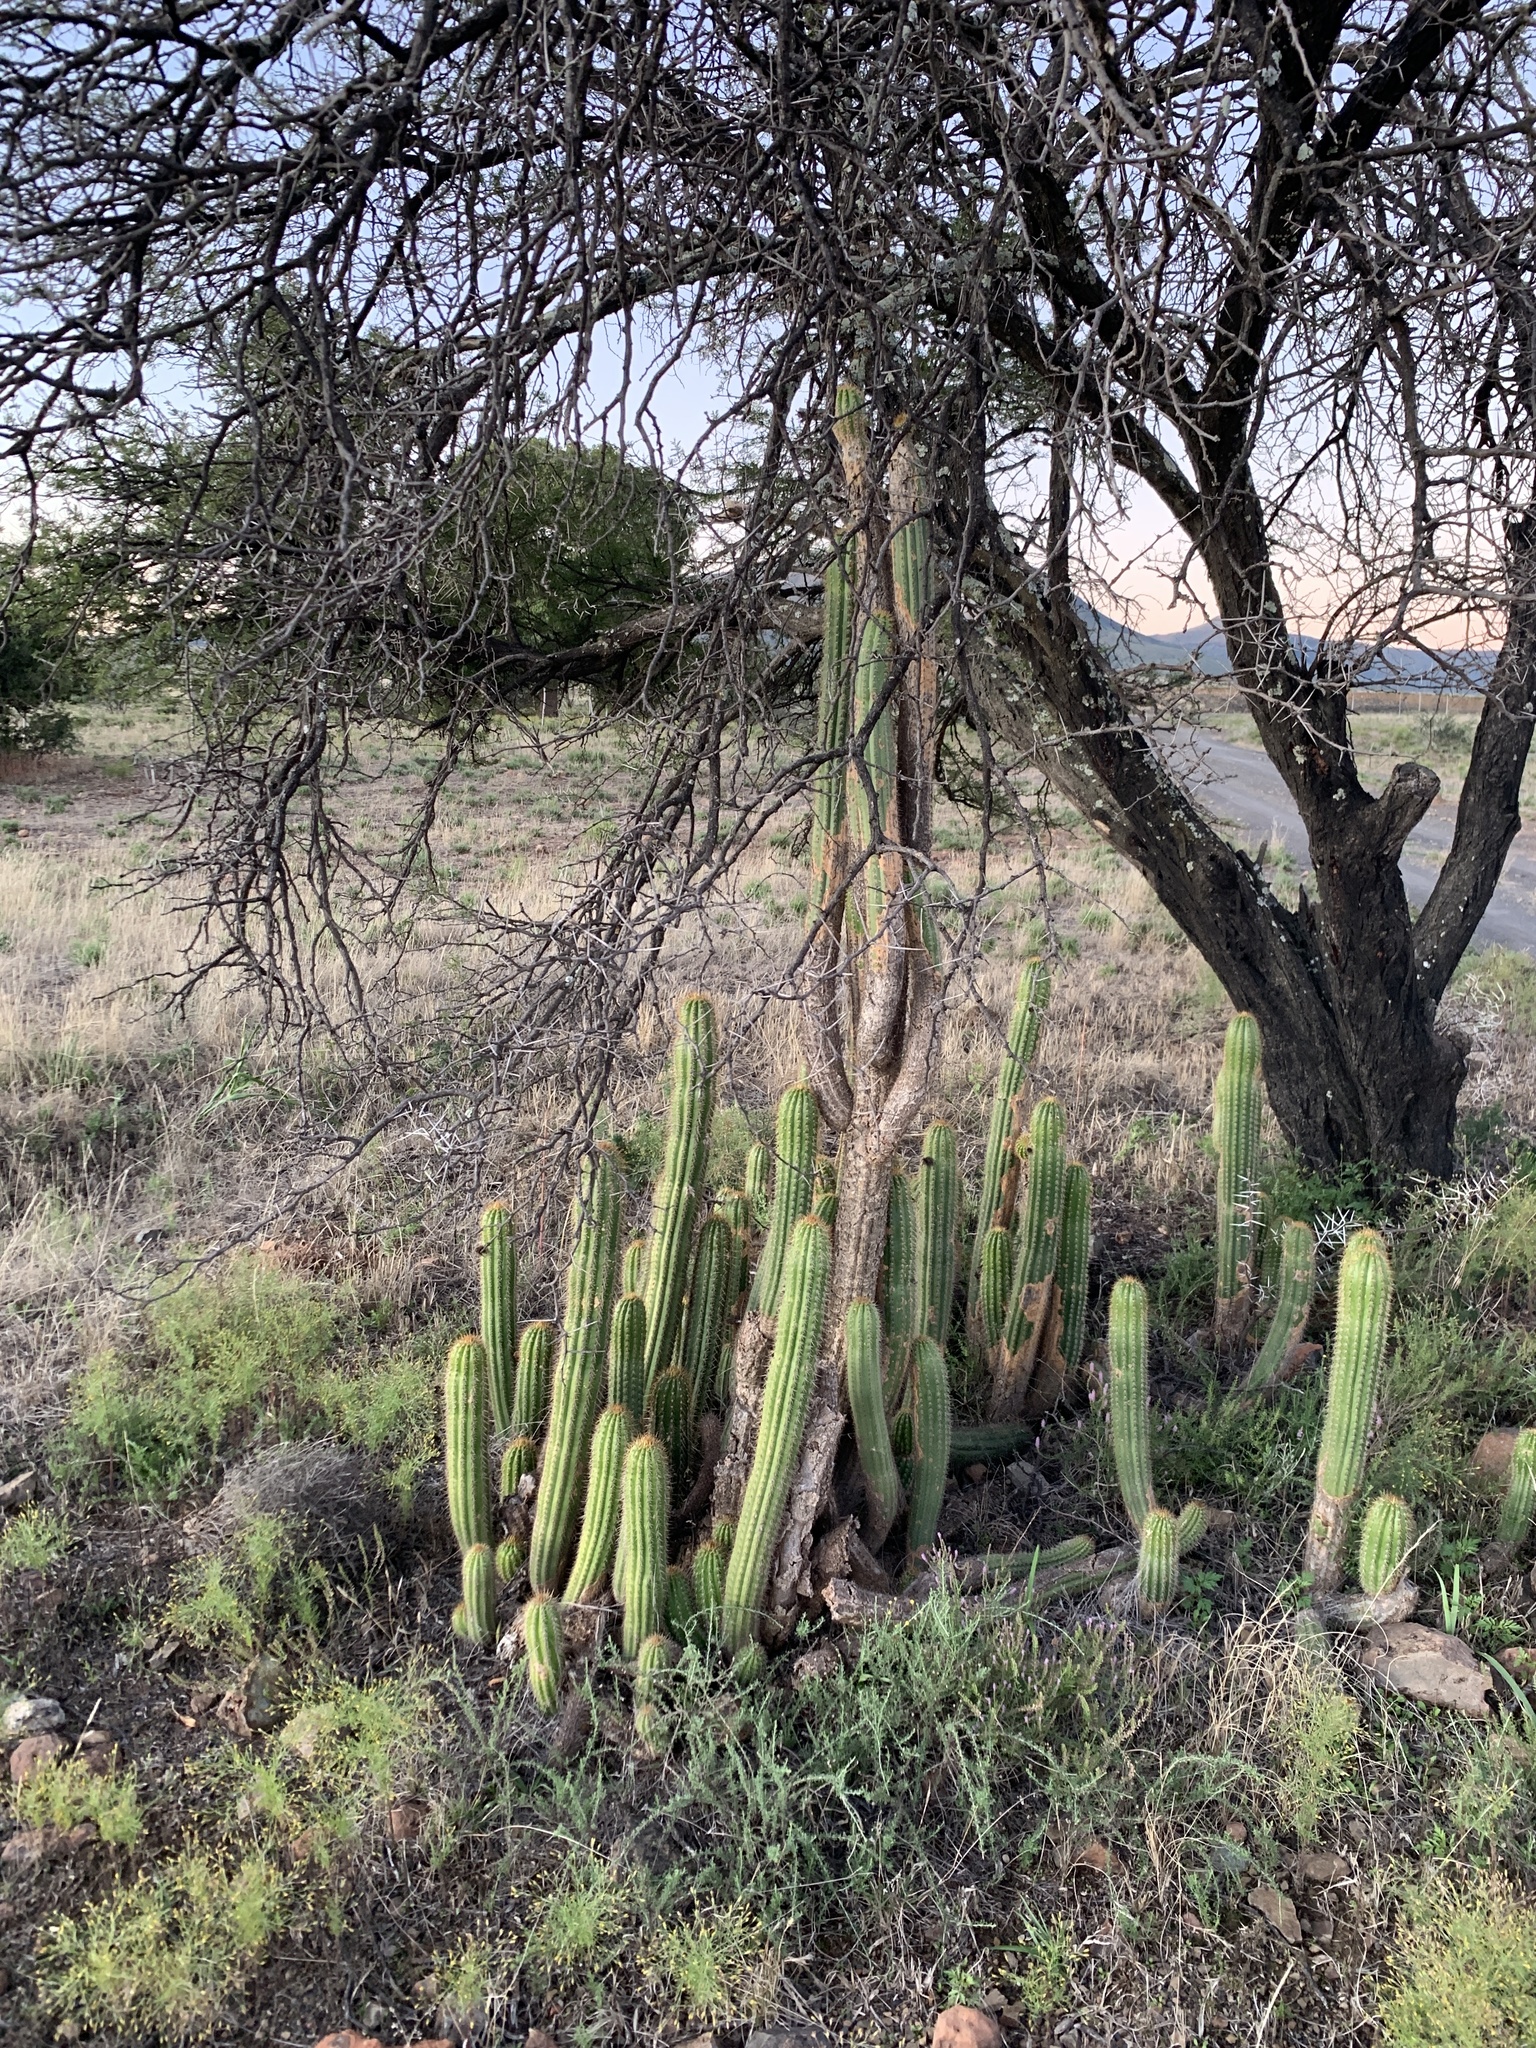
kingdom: Plantae
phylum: Tracheophyta
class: Magnoliopsida
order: Caryophyllales
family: Cactaceae
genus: Soehrensia
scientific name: Soehrensia spachiana
